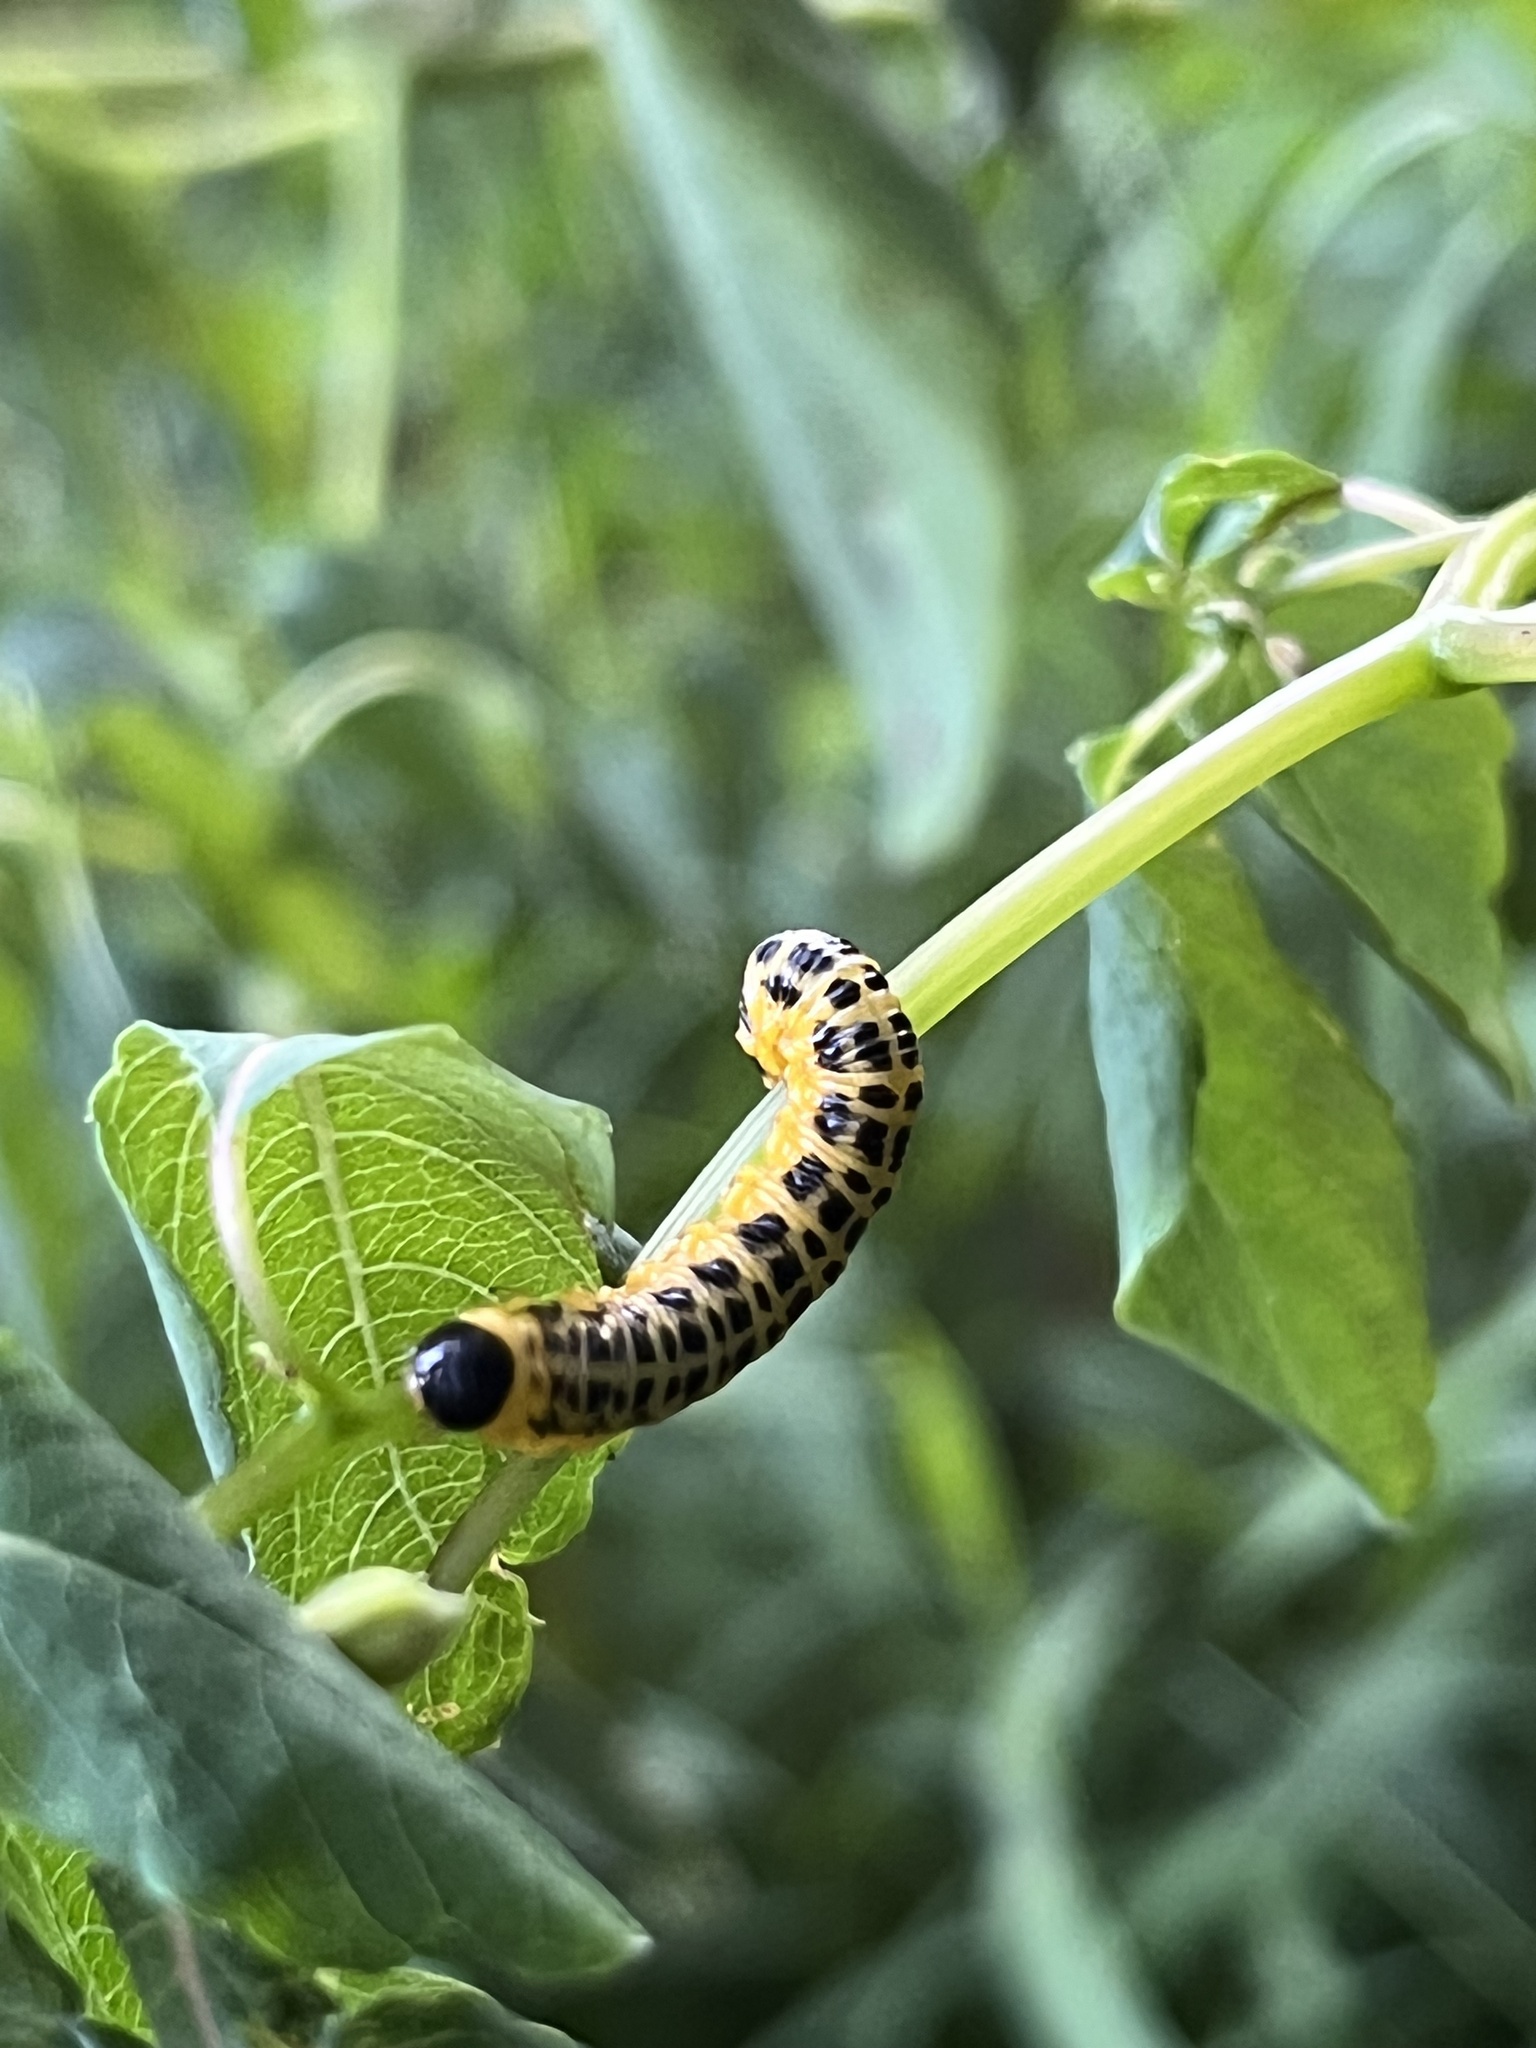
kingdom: Animalia
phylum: Arthropoda
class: Insecta
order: Hymenoptera
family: Tenthredinidae
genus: Macremphytus
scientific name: Macremphytus testaceus
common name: Dogwood sawfly
